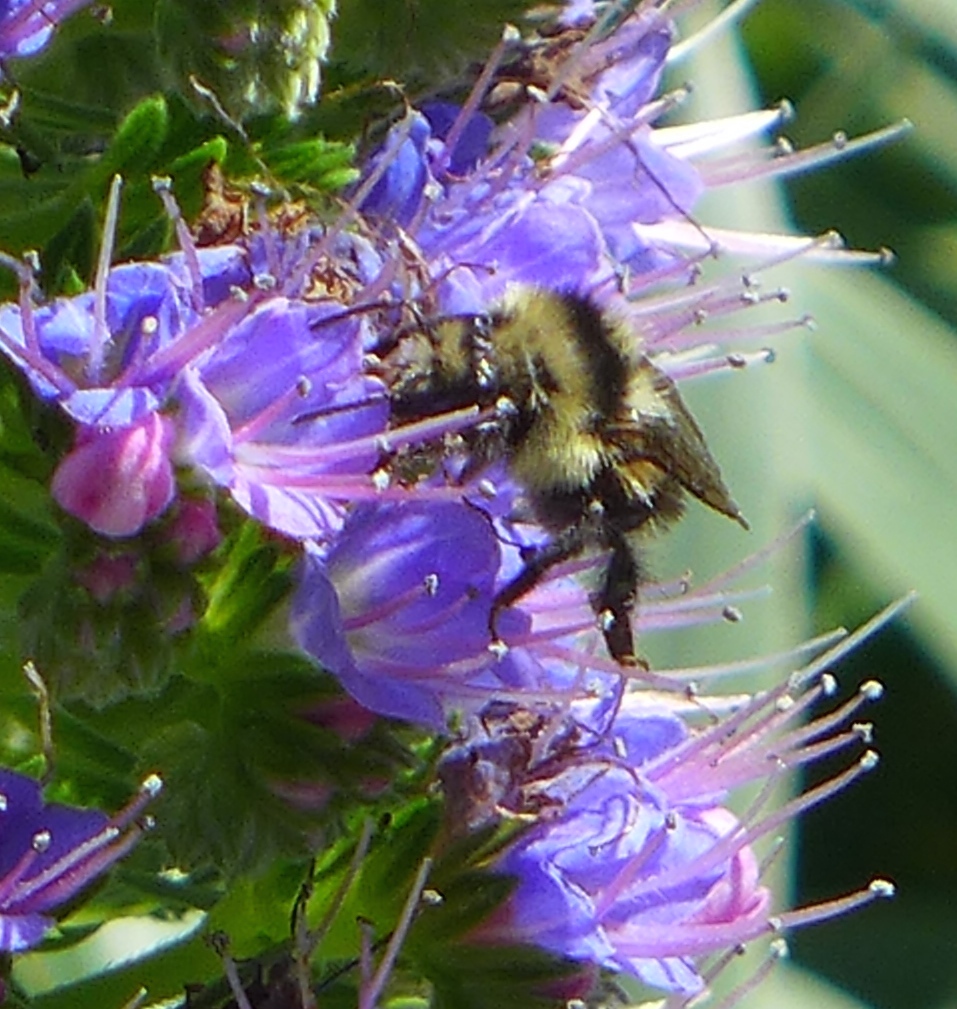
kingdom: Animalia
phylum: Arthropoda
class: Insecta
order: Hymenoptera
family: Apidae
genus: Bombus
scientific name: Bombus melanopygus
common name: Black tail bumble bee
